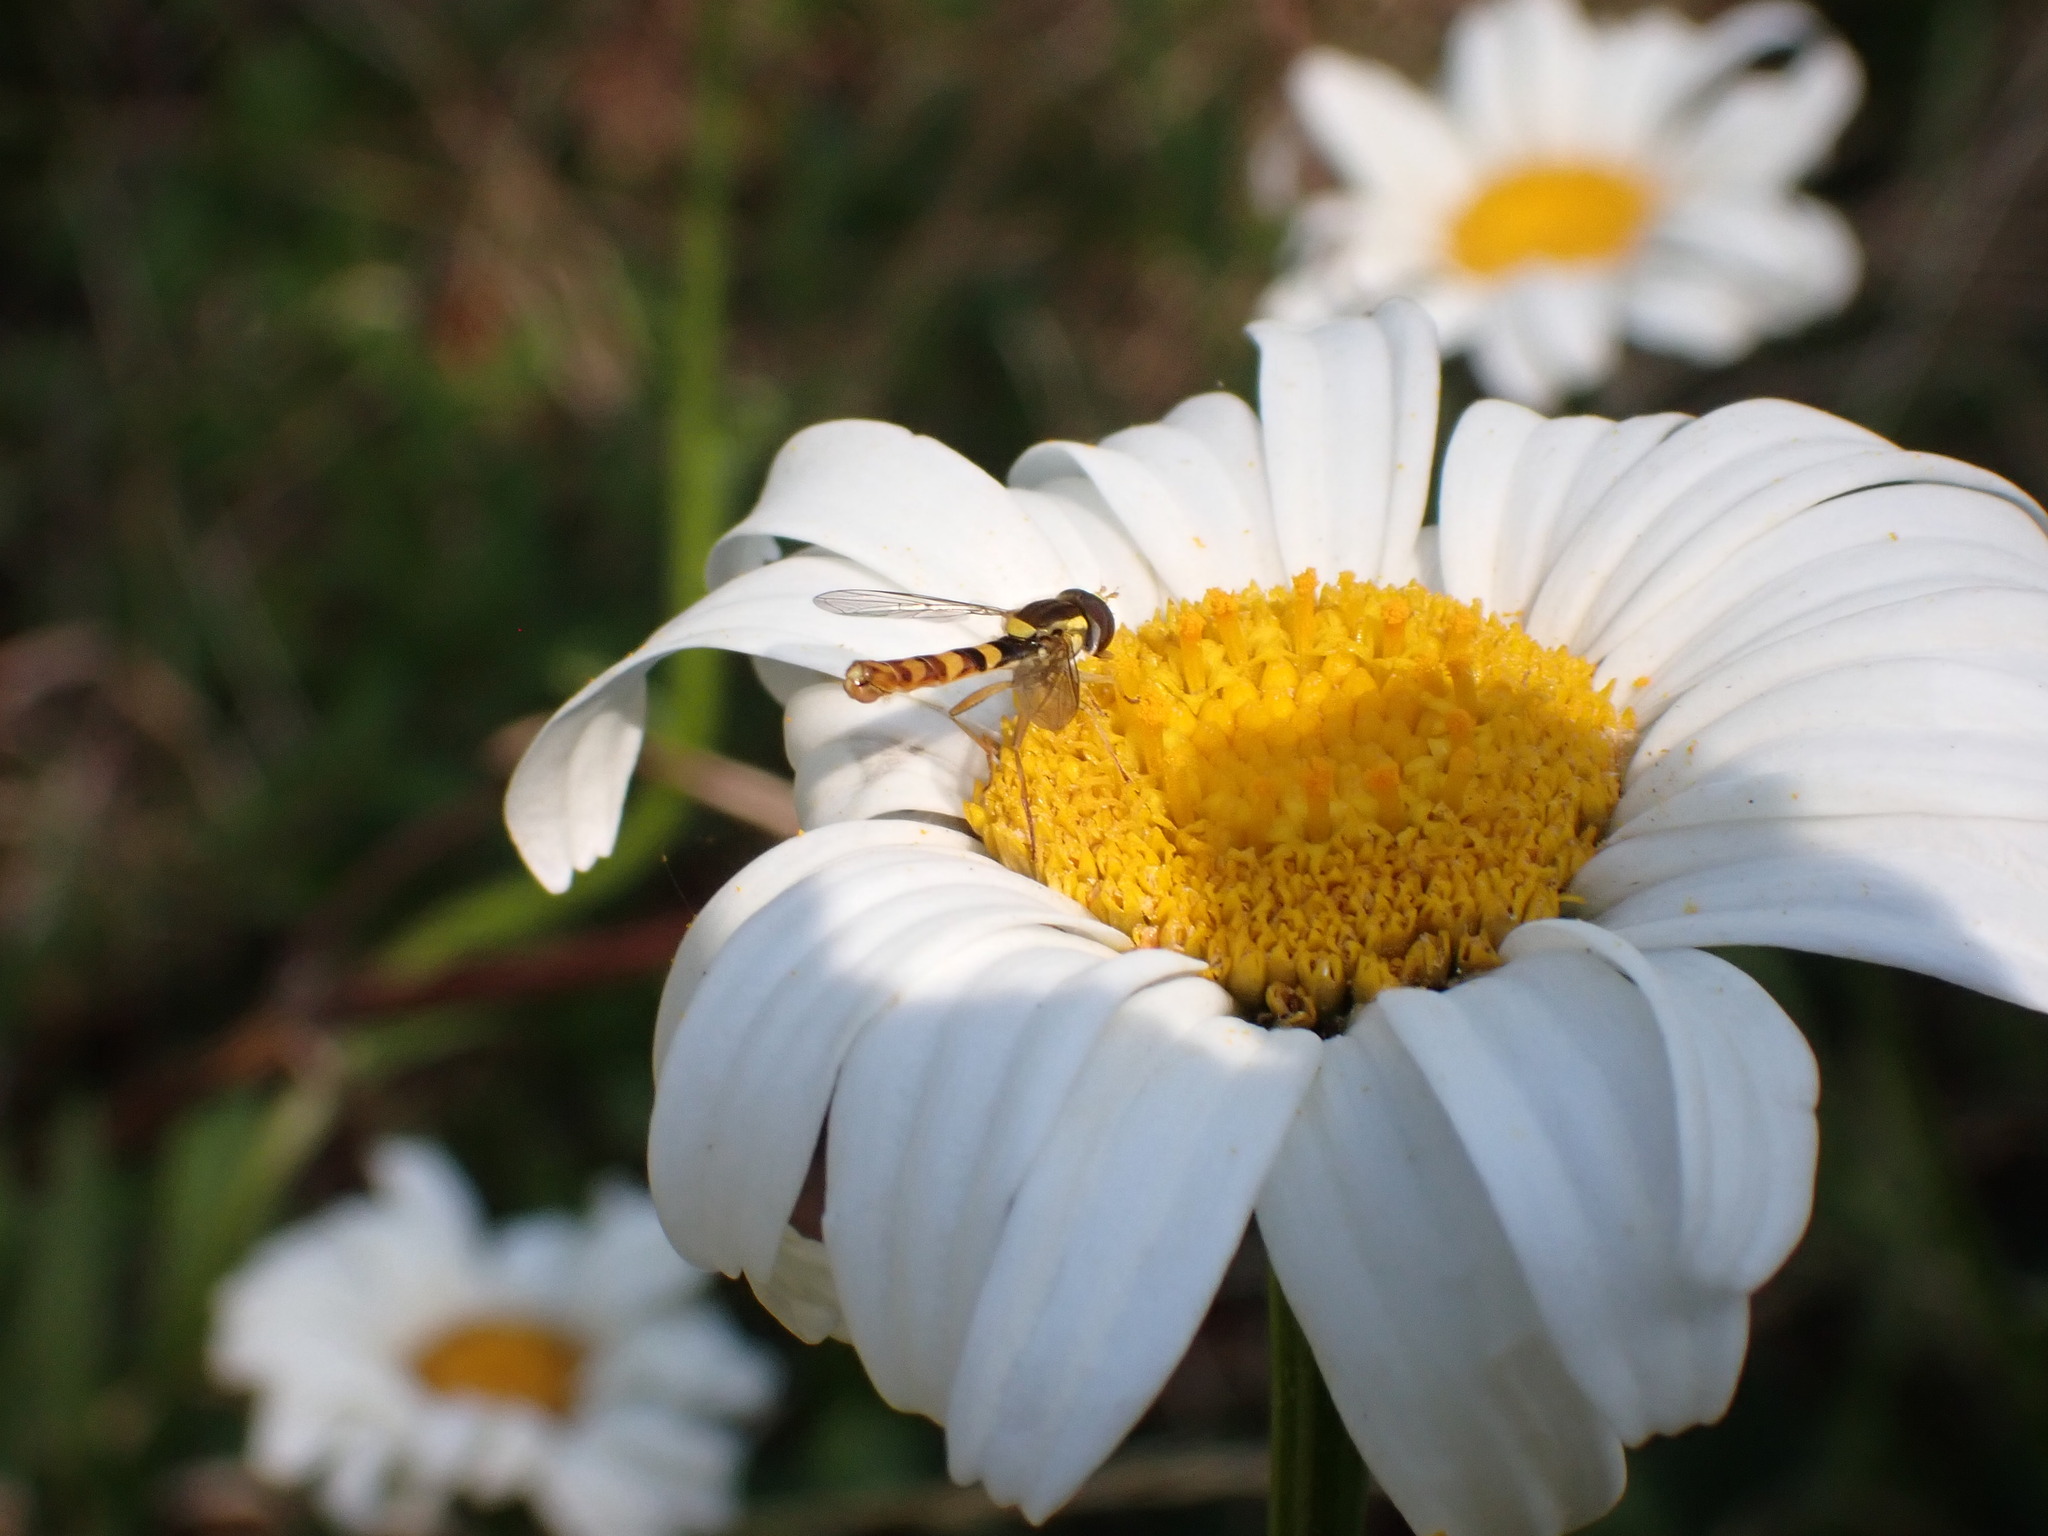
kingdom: Animalia
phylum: Arthropoda
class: Insecta
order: Diptera
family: Syrphidae
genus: Sphaerophoria
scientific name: Sphaerophoria scripta
